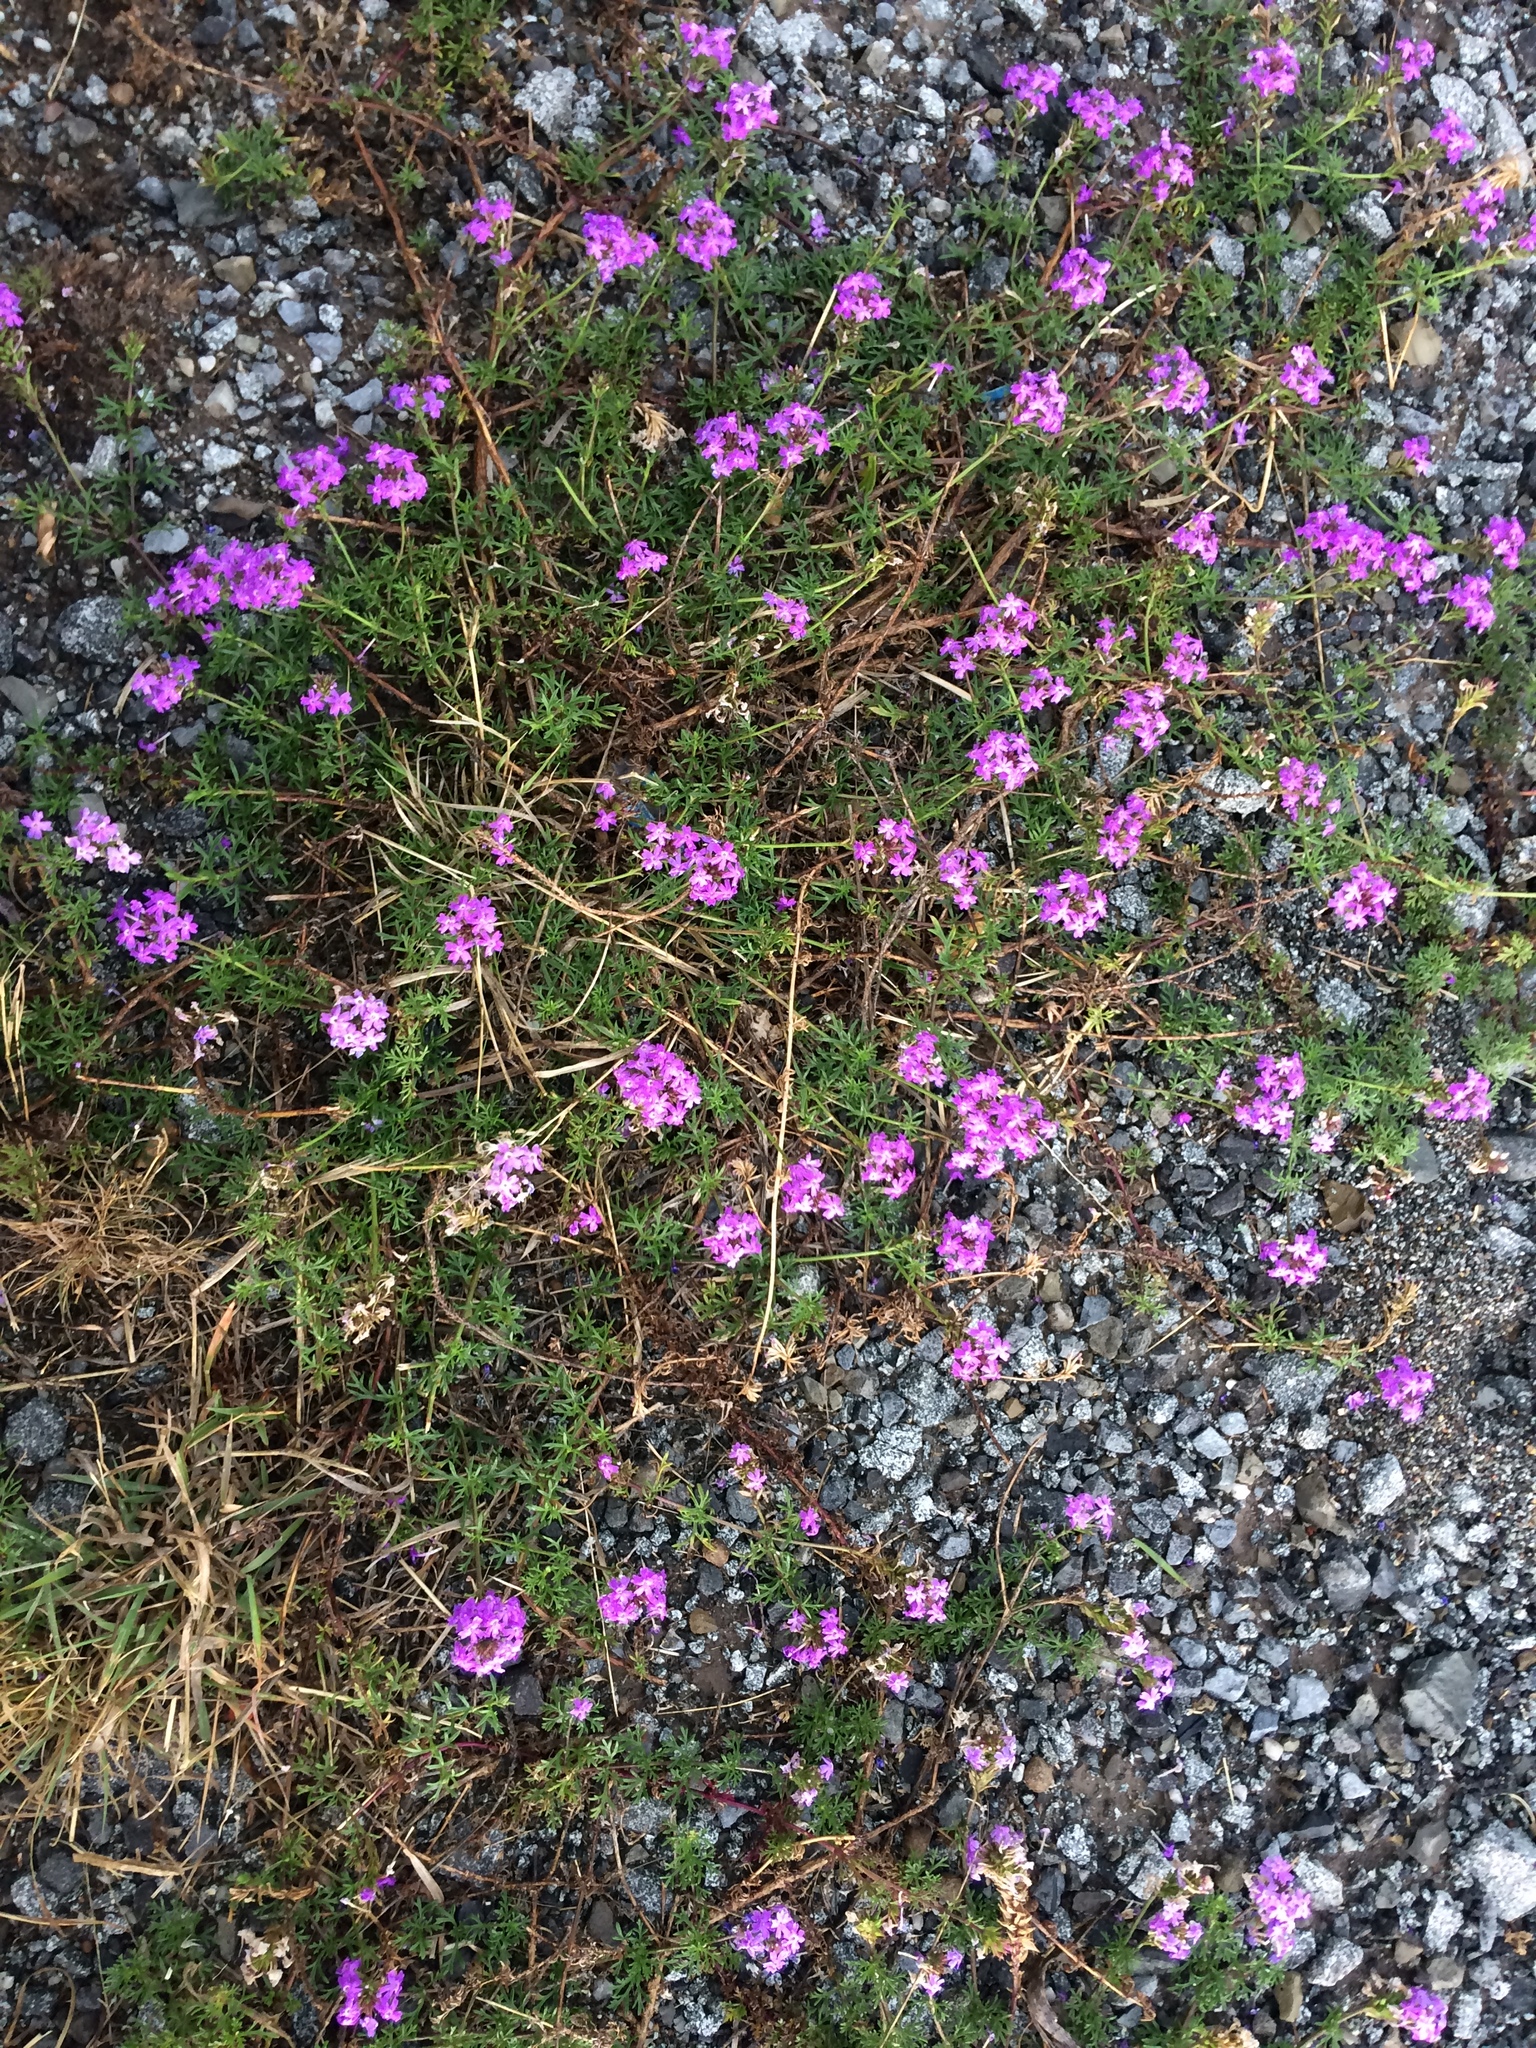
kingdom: Plantae
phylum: Tracheophyta
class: Magnoliopsida
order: Lamiales
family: Verbenaceae
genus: Verbena
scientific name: Verbena aristigera
